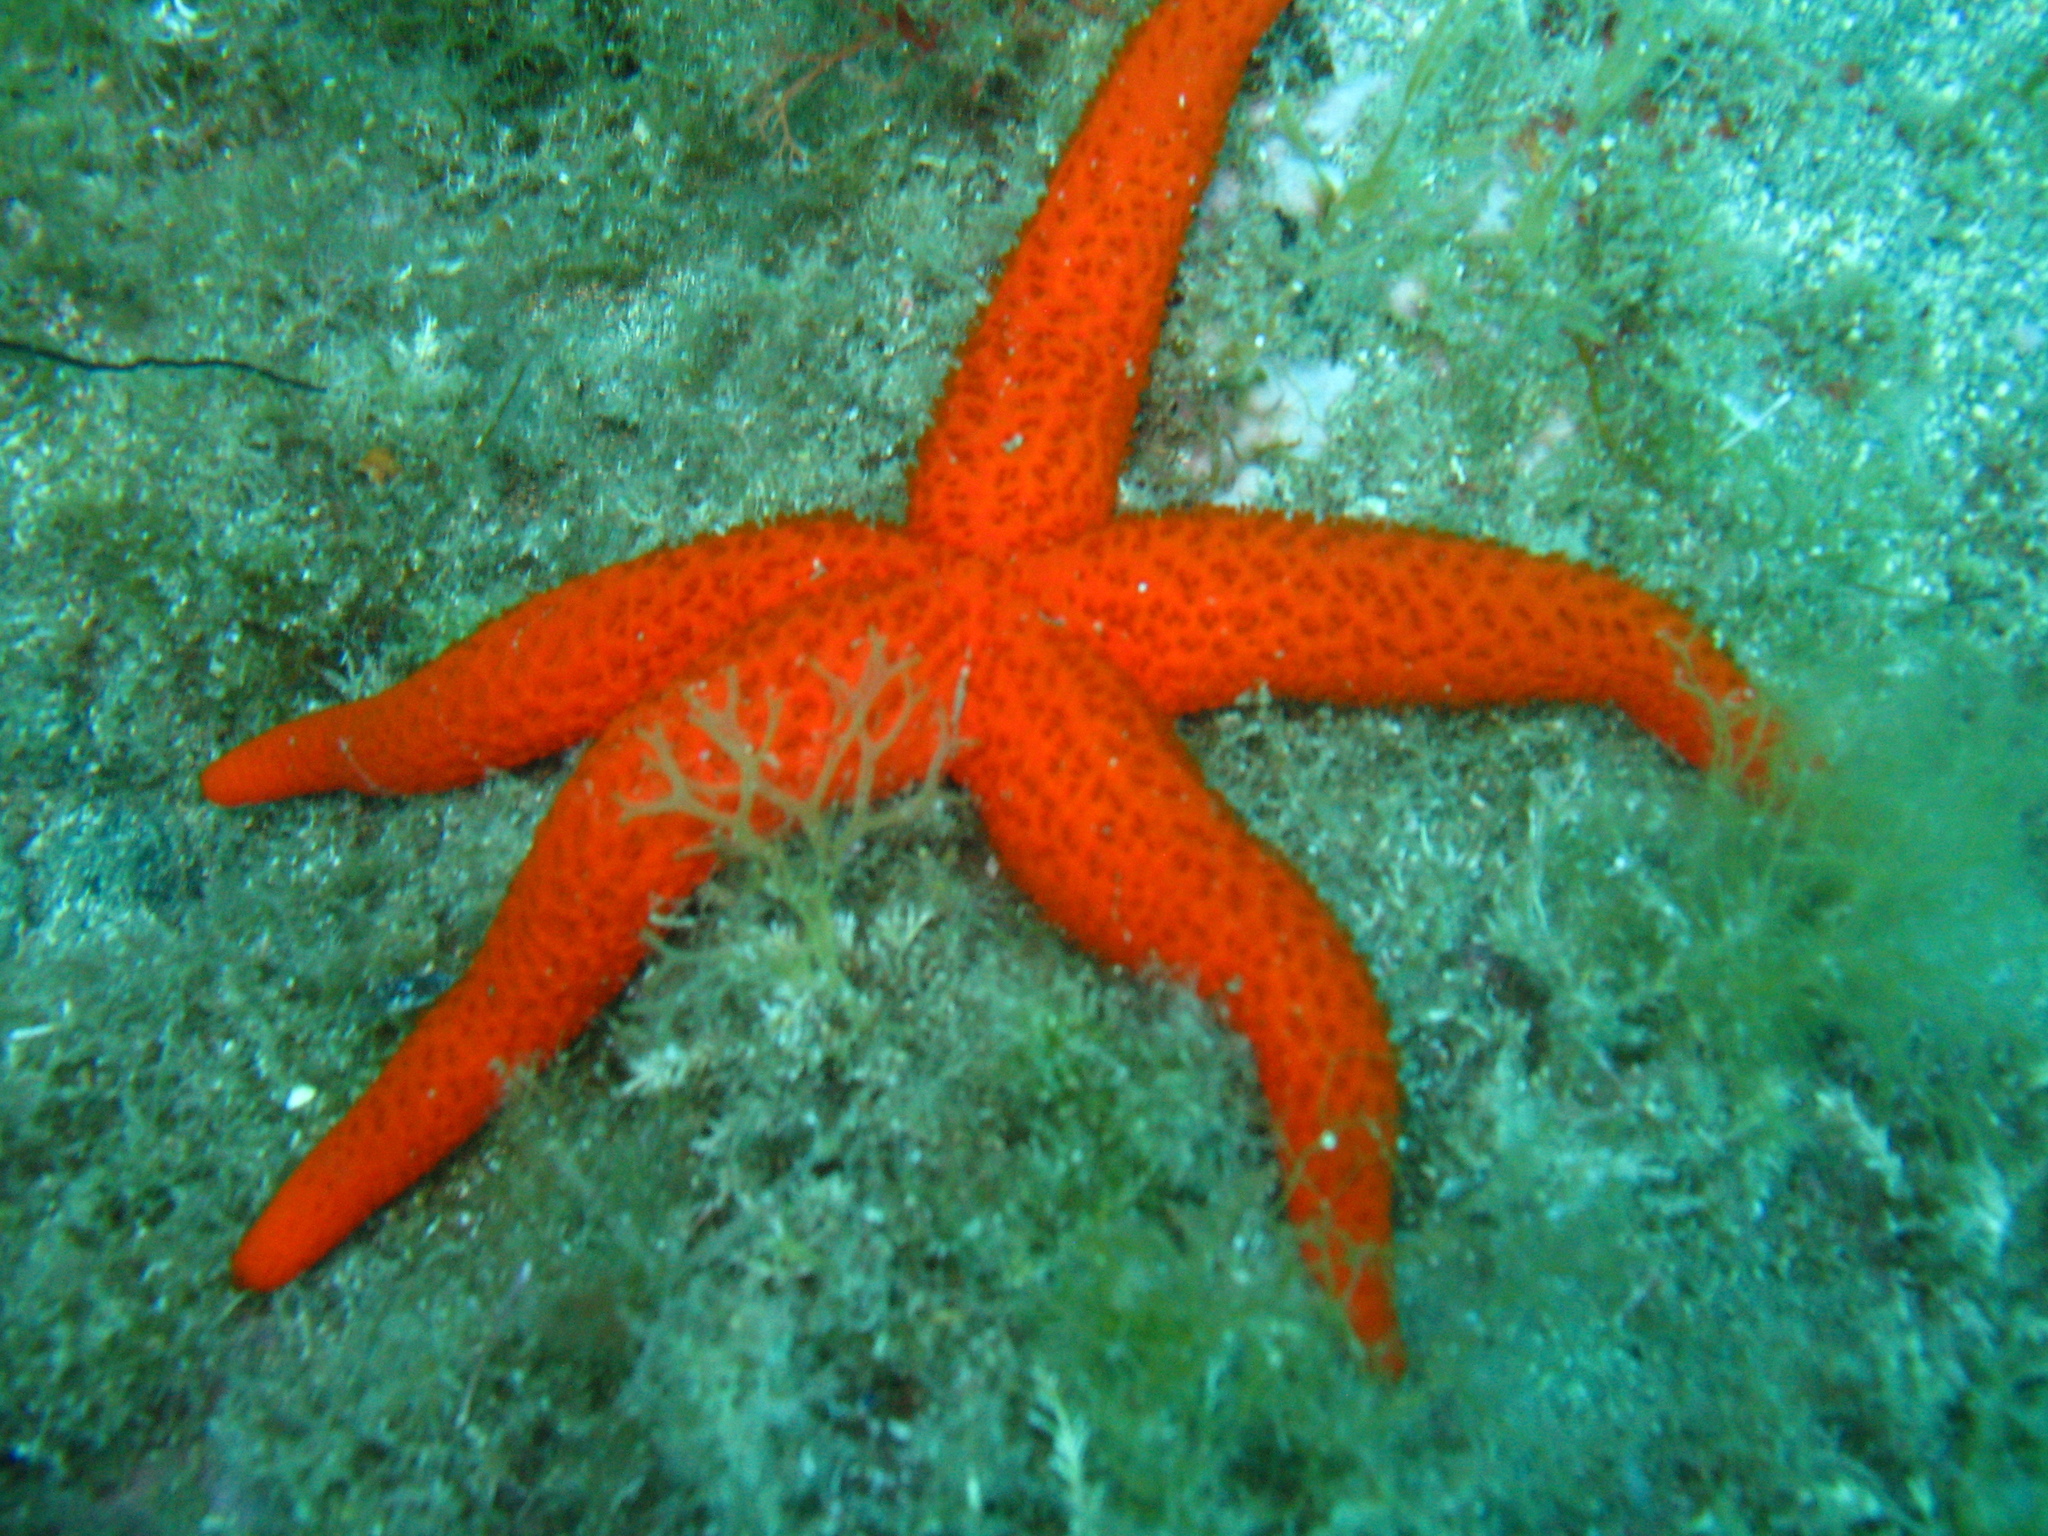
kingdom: Animalia
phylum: Echinodermata
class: Asteroidea
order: Spinulosida
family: Echinasteridae
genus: Echinaster
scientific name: Echinaster sepositus
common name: Red starfish
